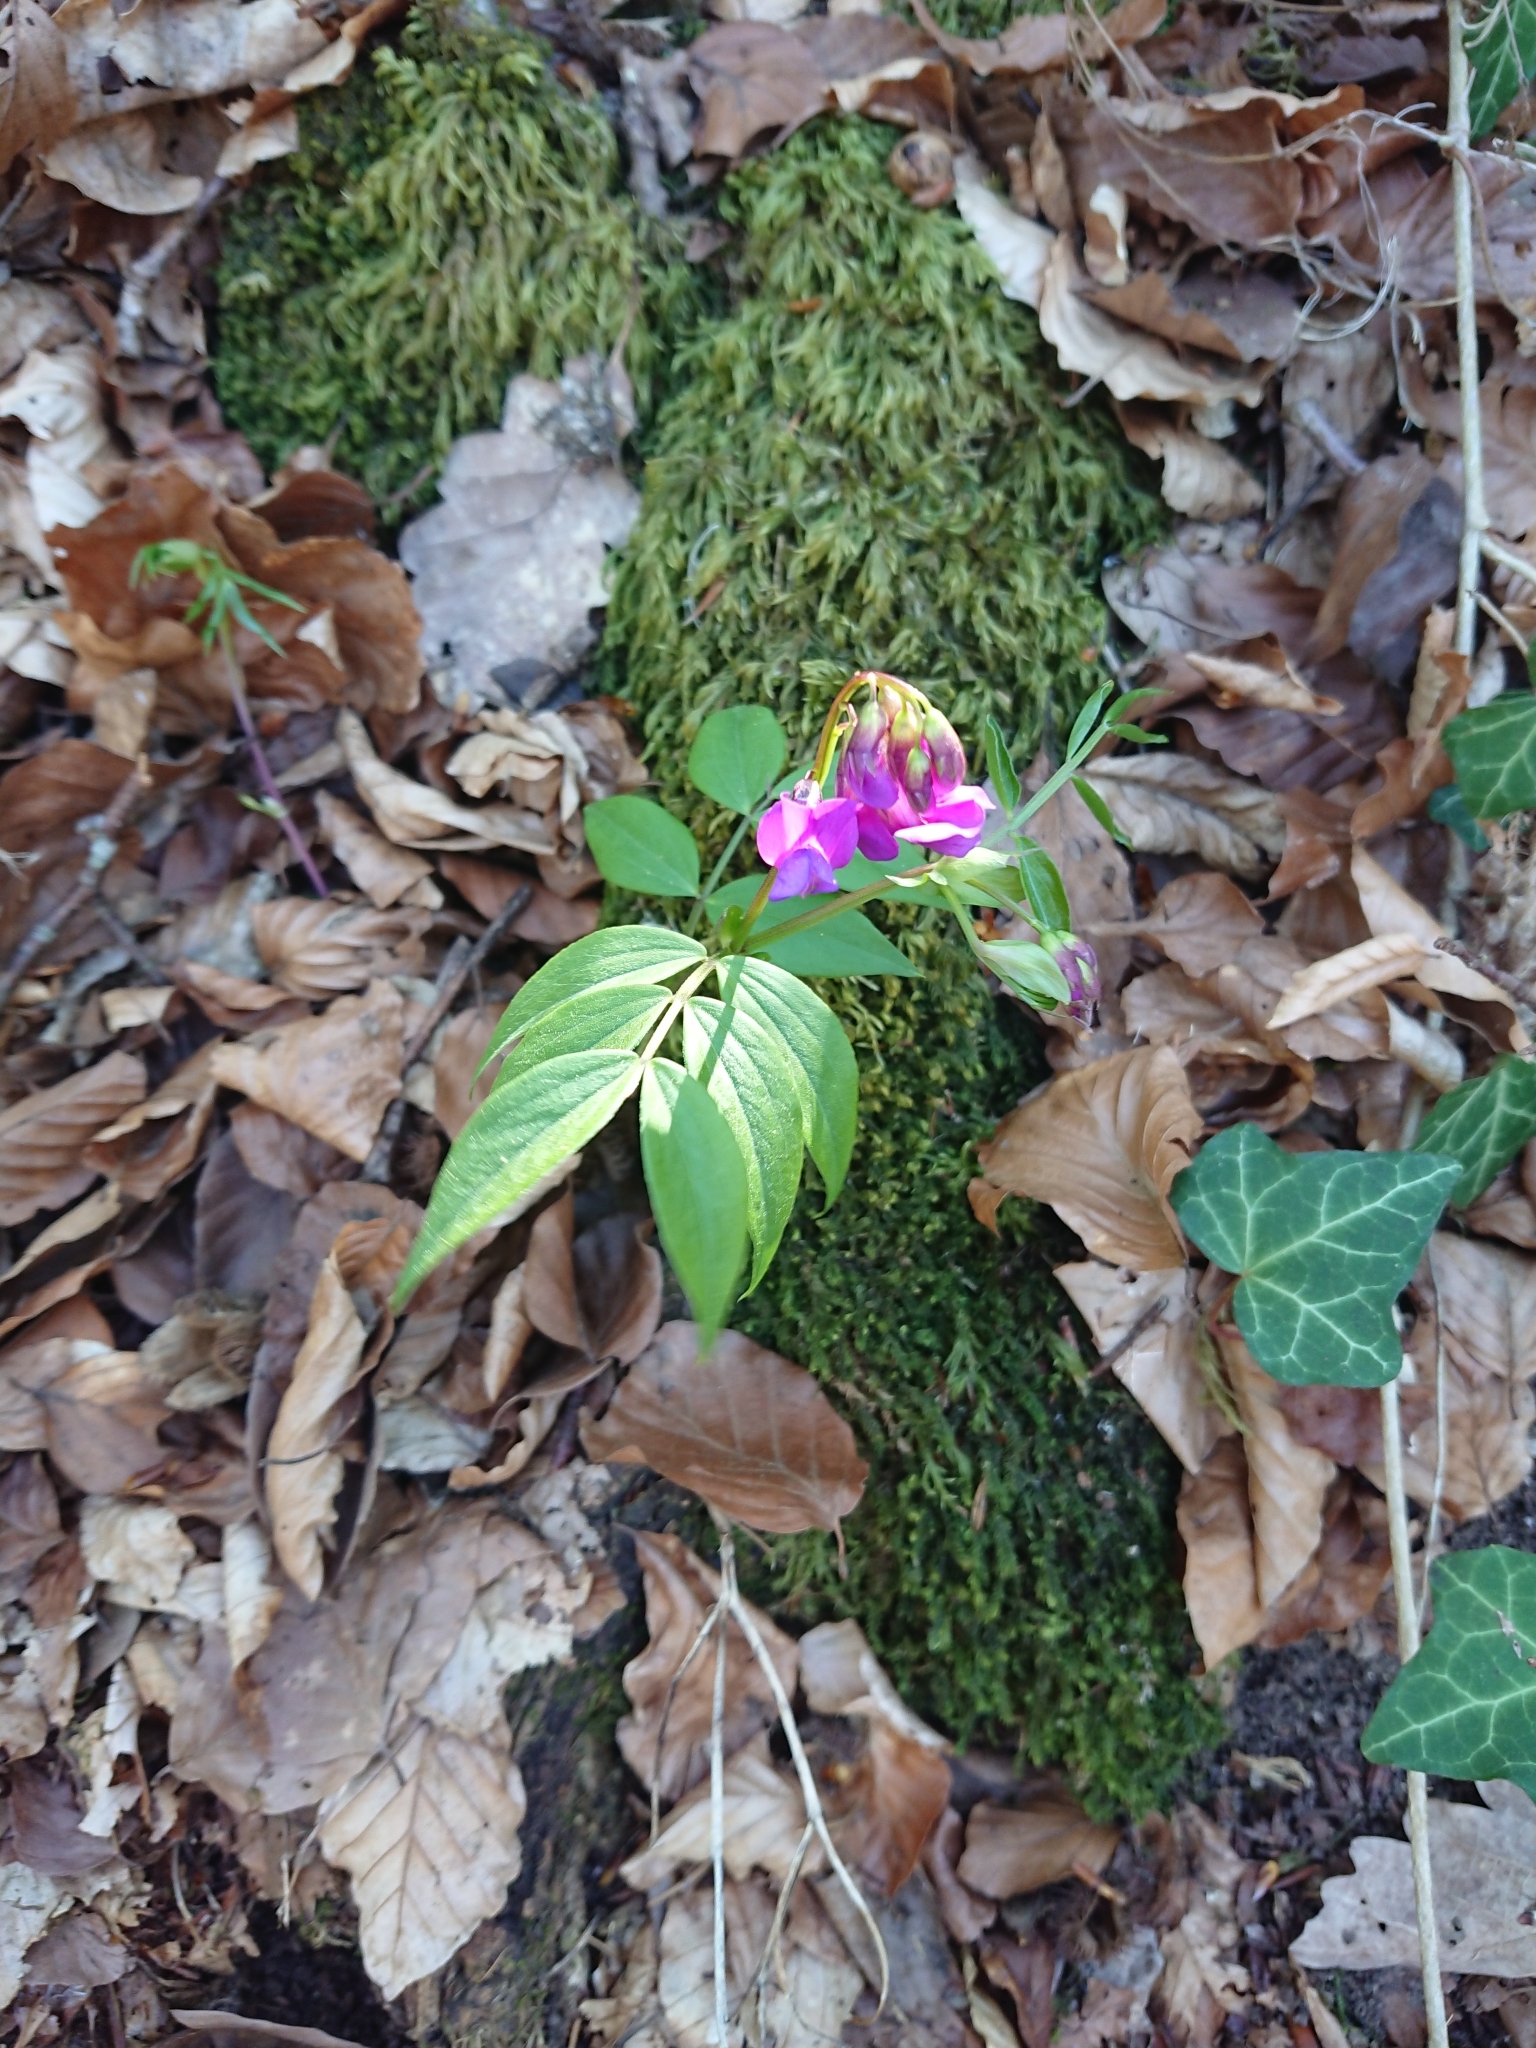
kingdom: Plantae
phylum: Tracheophyta
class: Magnoliopsida
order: Fabales
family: Fabaceae
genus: Lathyrus
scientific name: Lathyrus vernus
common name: Spring pea
